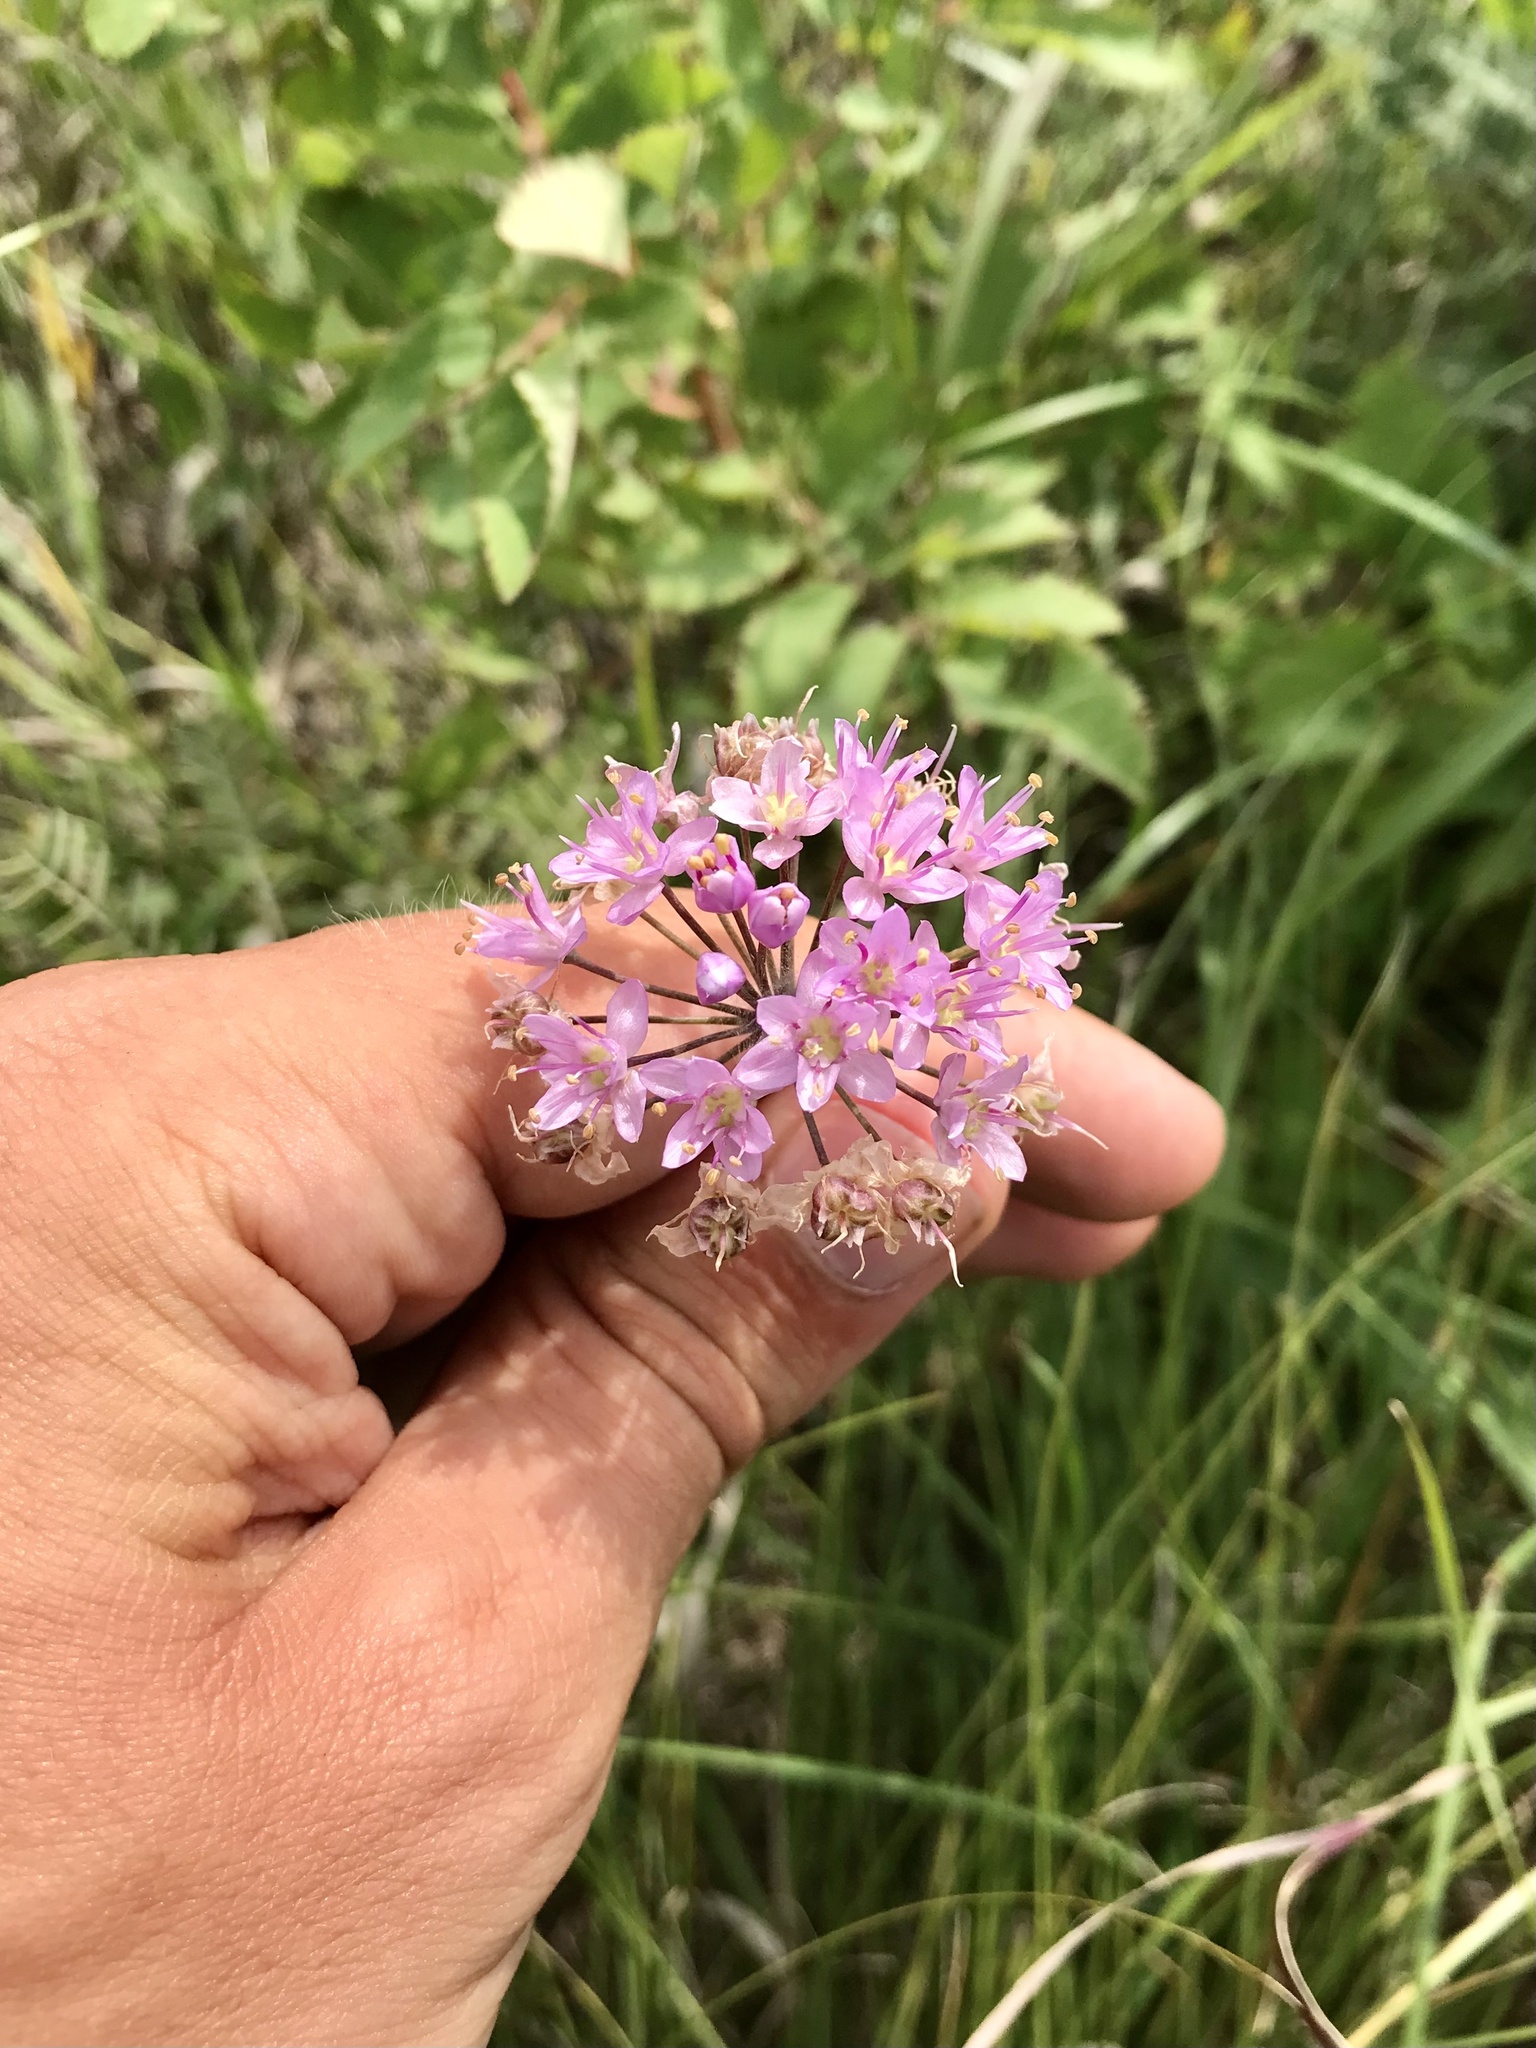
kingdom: Plantae
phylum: Tracheophyta
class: Liliopsida
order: Asparagales
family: Amaryllidaceae
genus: Allium
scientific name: Allium stellatum
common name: Autumn onion
